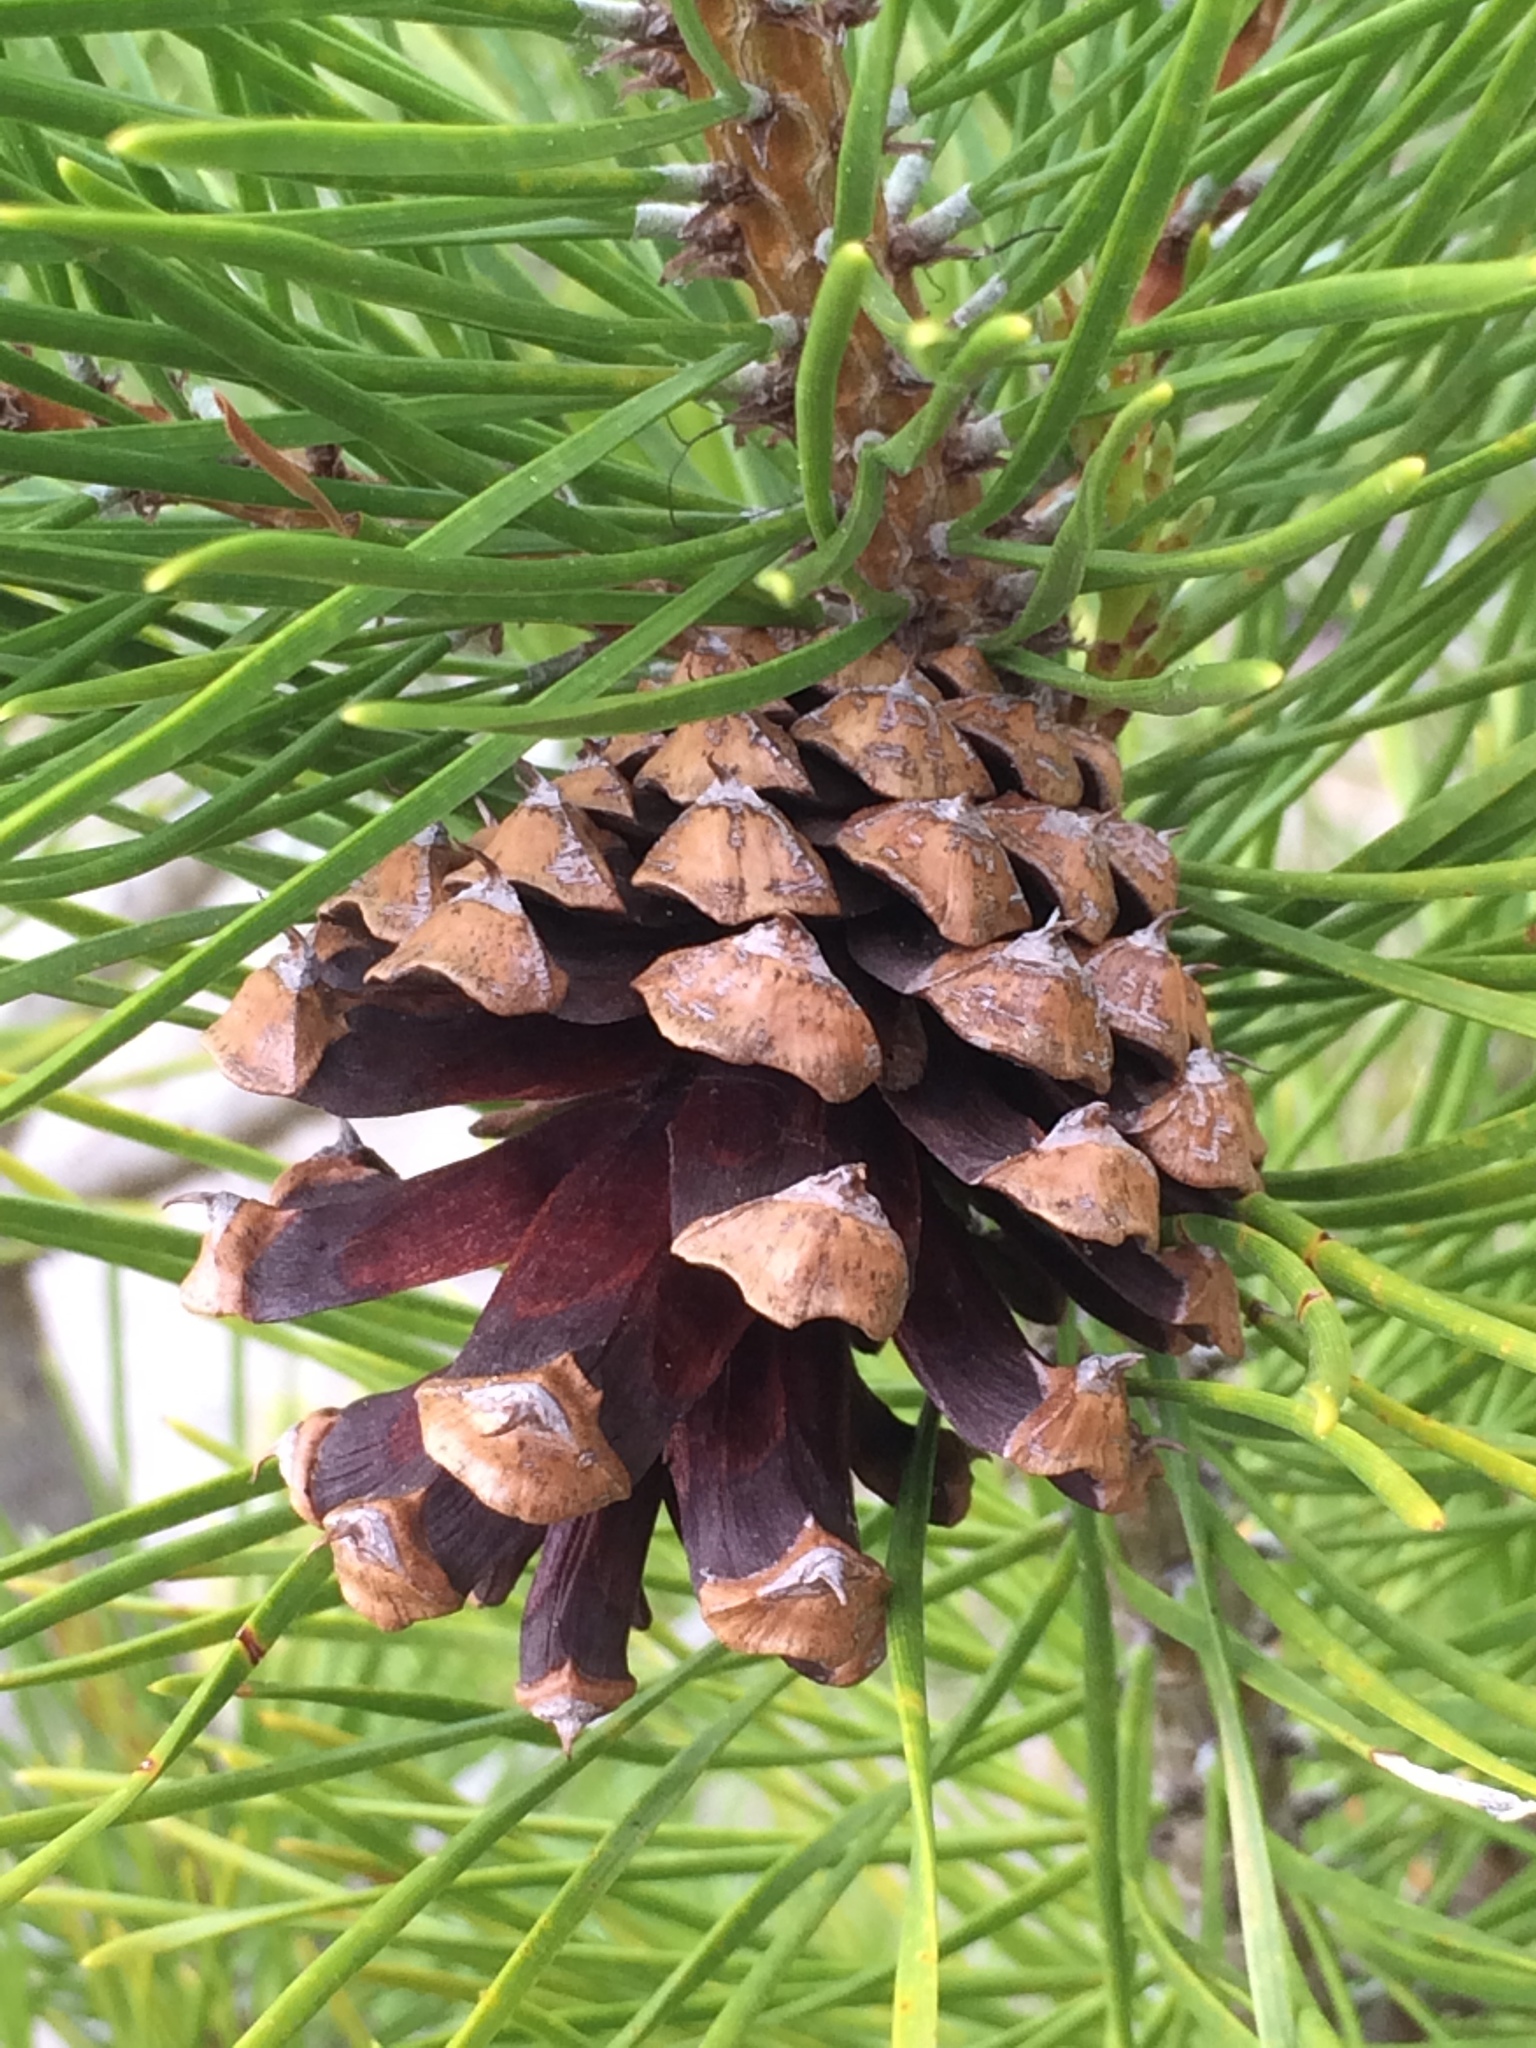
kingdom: Plantae
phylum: Tracheophyta
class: Pinopsida
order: Pinales
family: Pinaceae
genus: Pinus
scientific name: Pinus contorta
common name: Lodgepole pine
